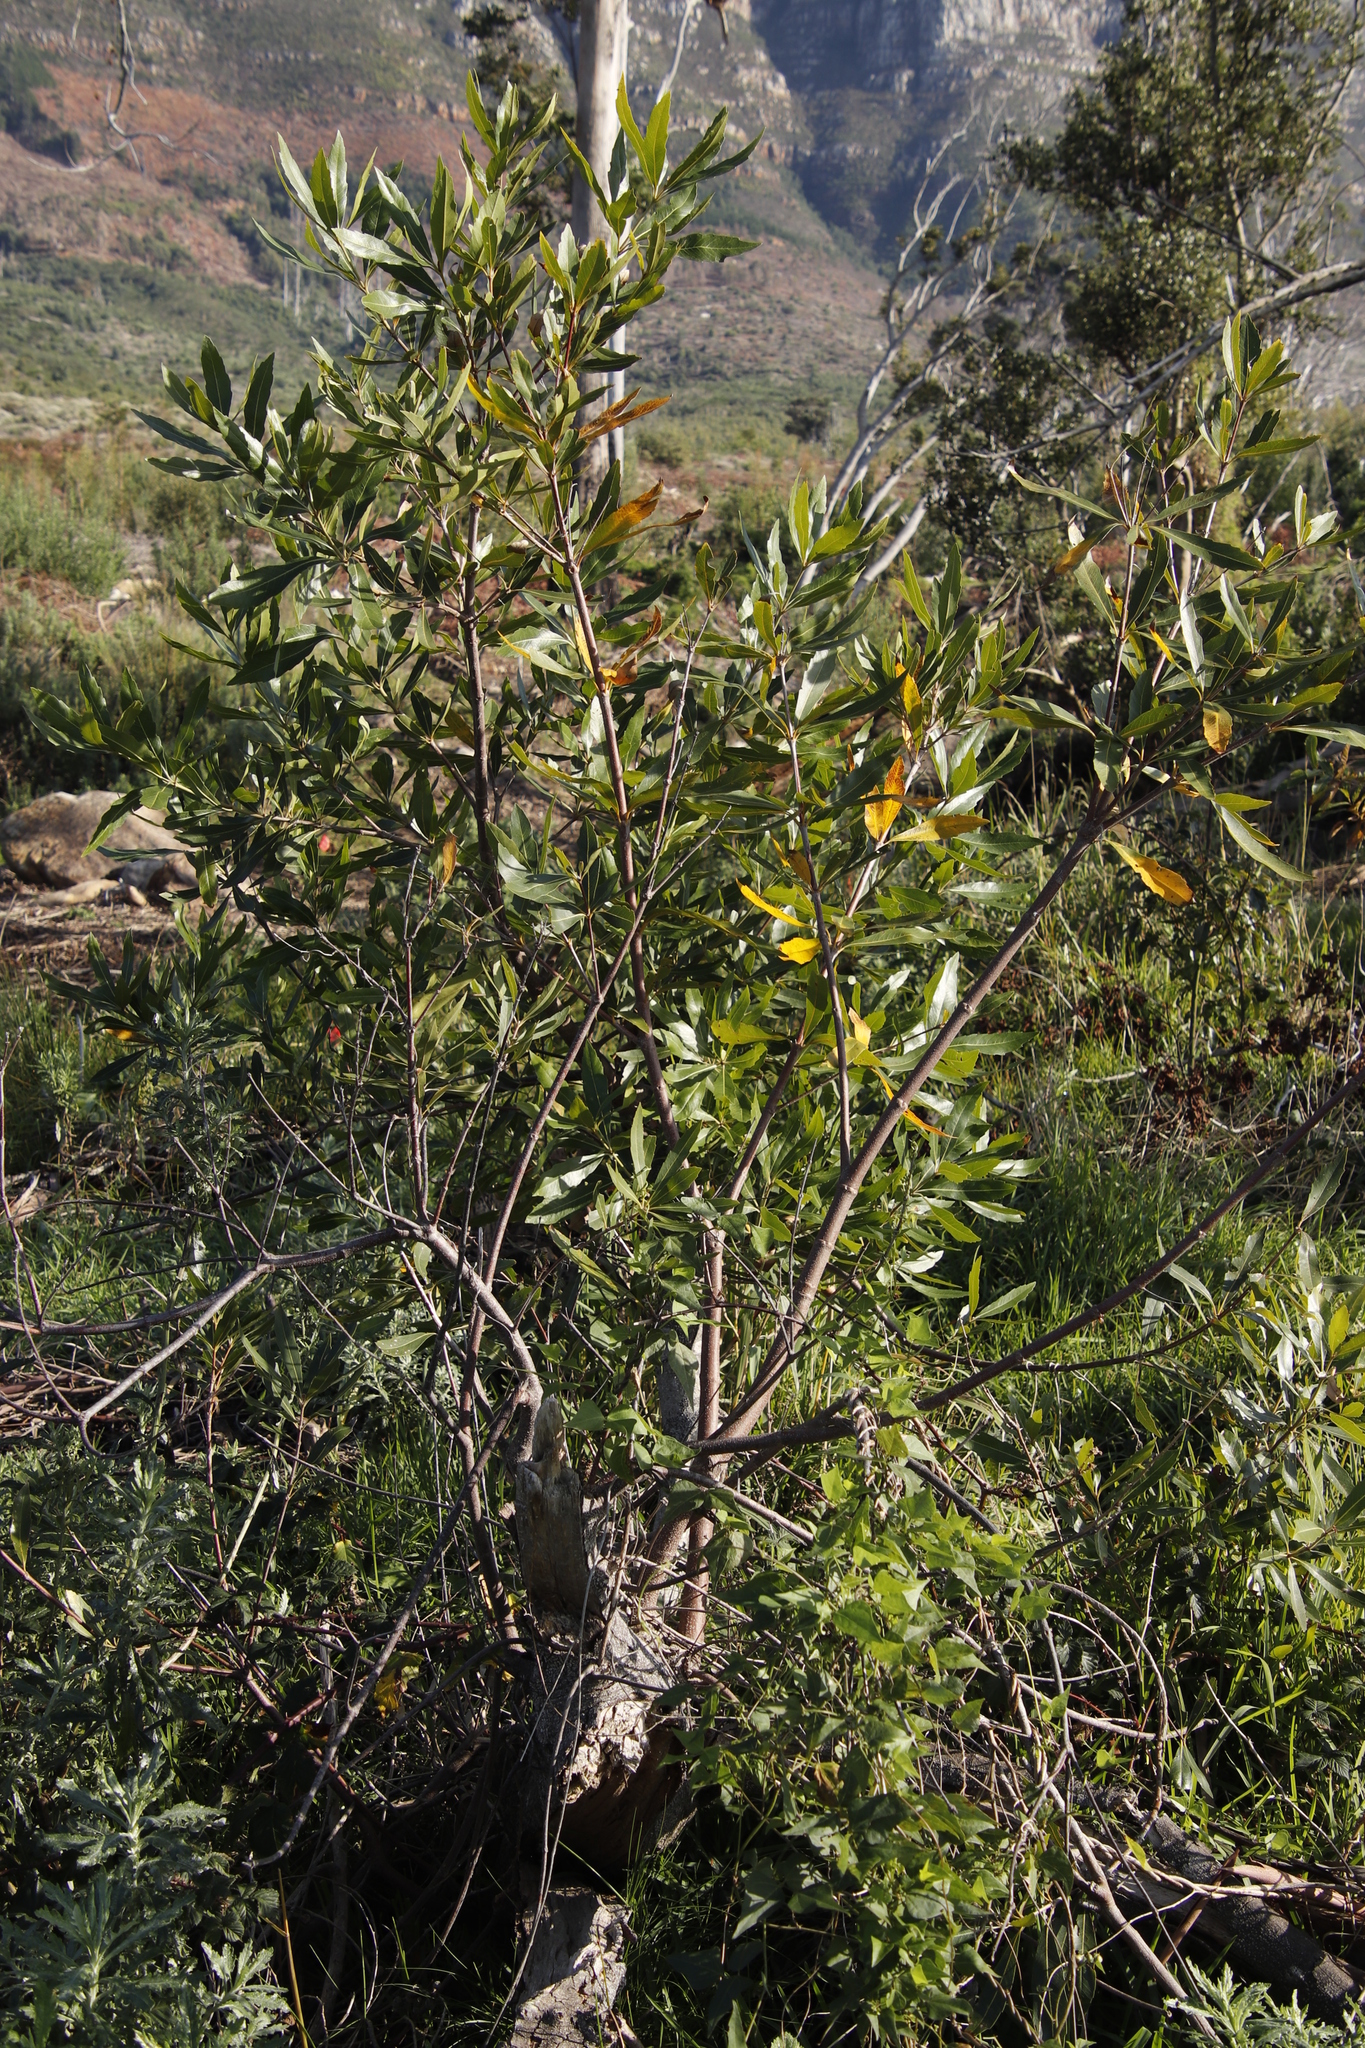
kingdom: Plantae
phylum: Tracheophyta
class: Magnoliopsida
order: Proteales
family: Proteaceae
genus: Brabejum
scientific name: Brabejum stellatifolium
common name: Wild almond
